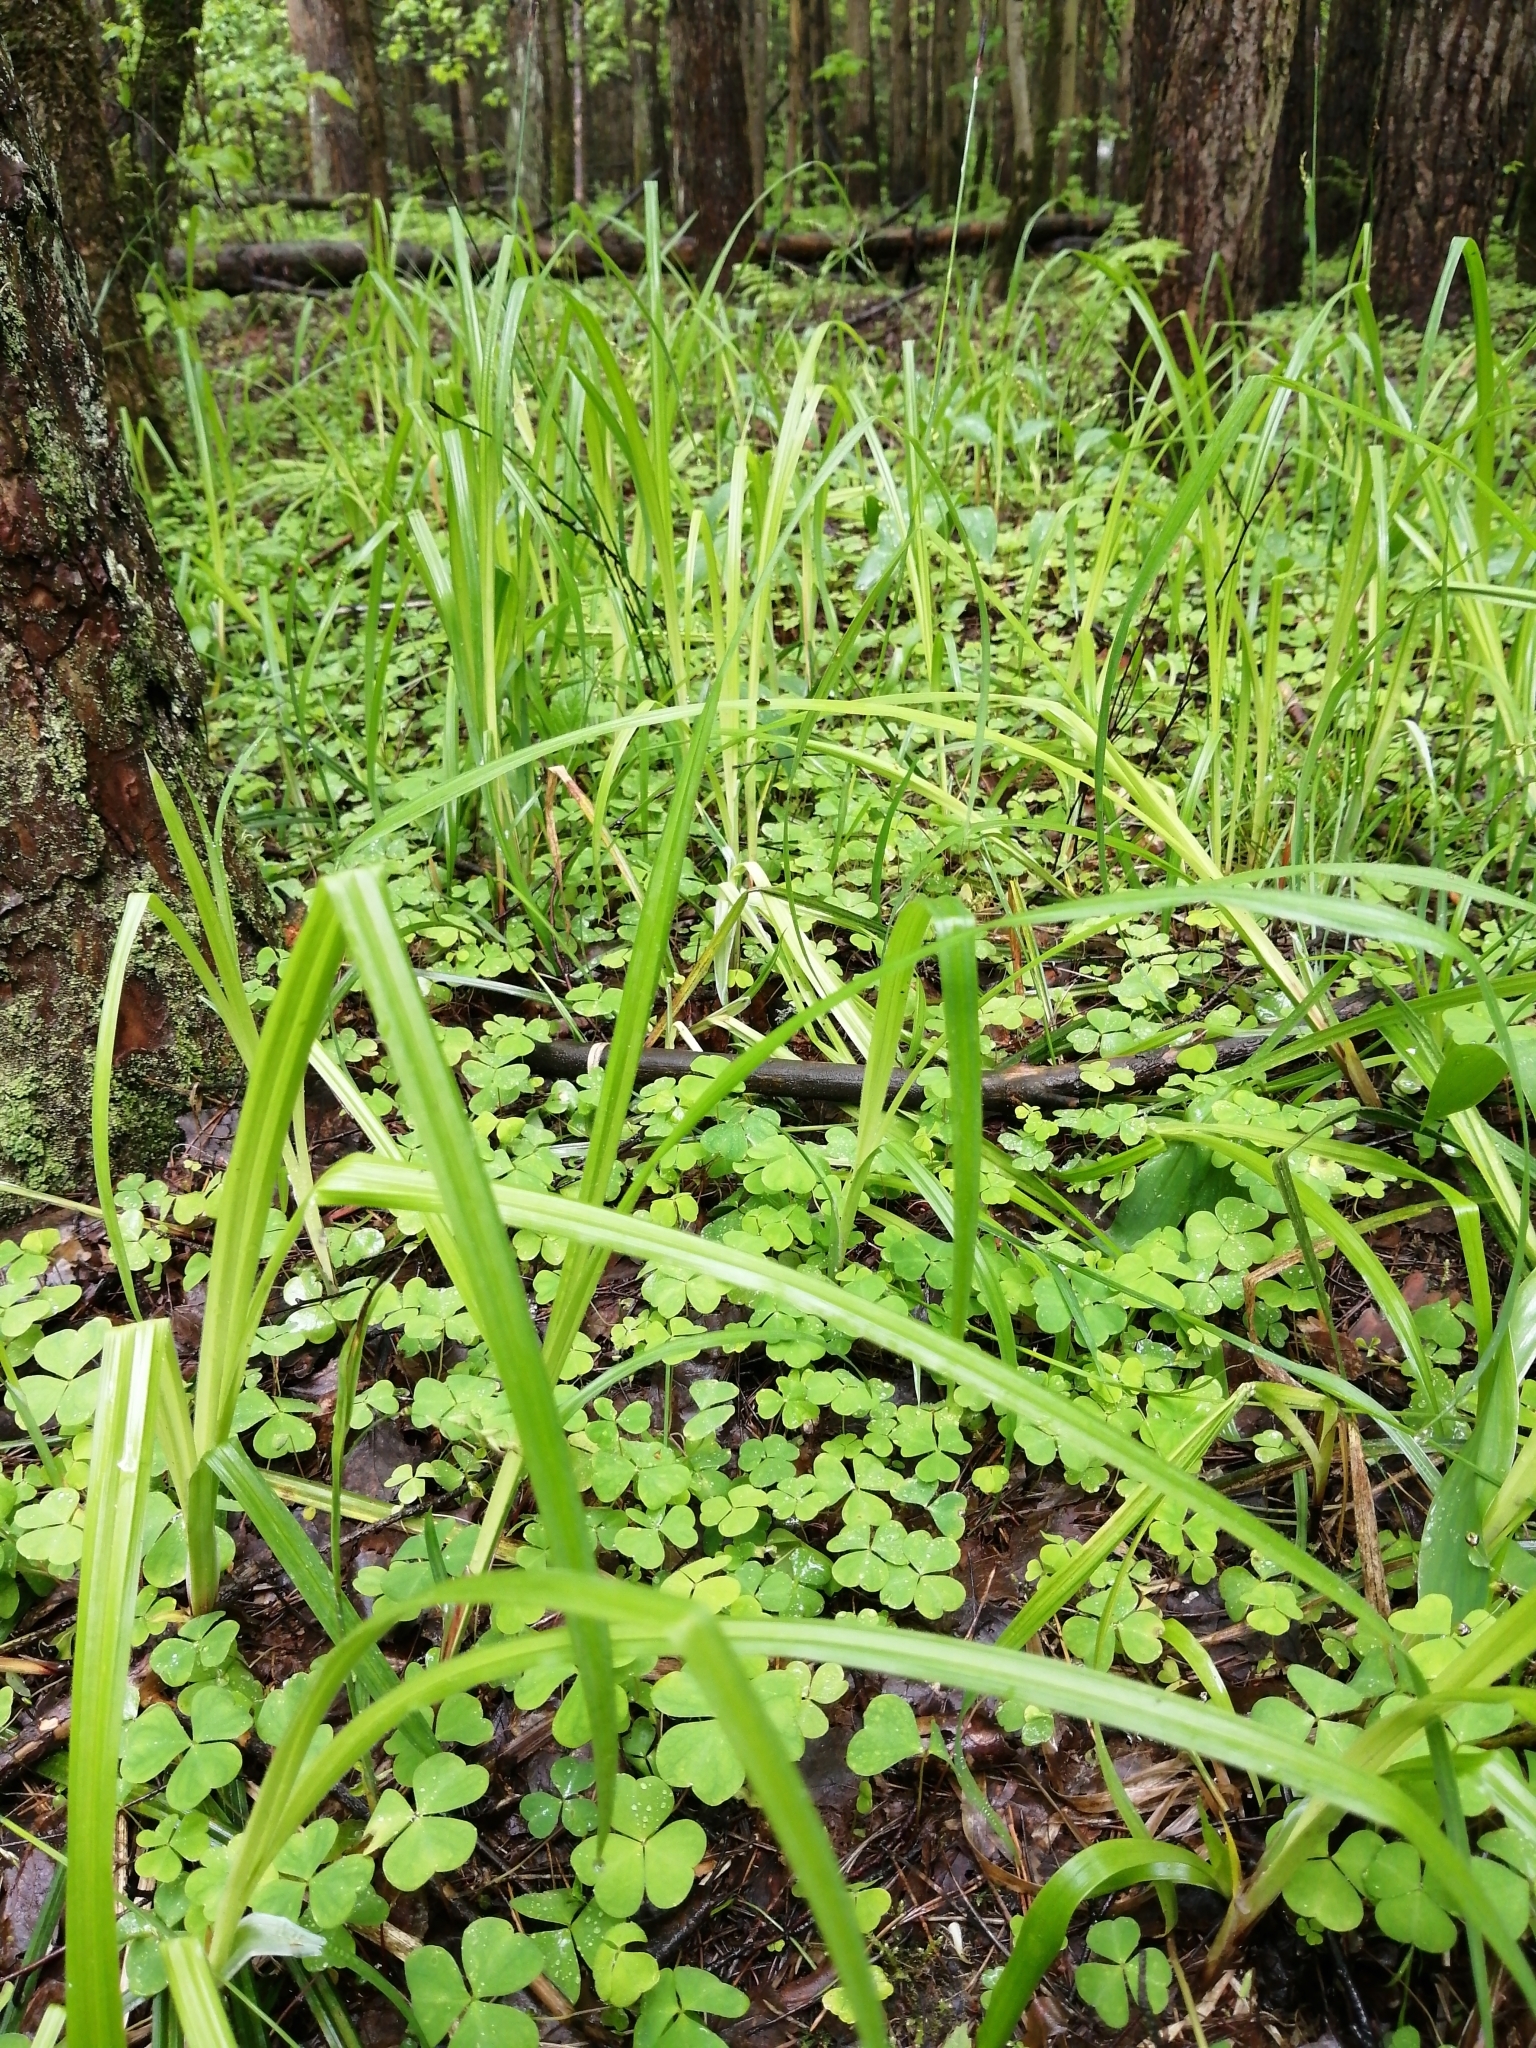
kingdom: Plantae
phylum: Tracheophyta
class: Liliopsida
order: Poales
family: Cyperaceae
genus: Carex
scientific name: Carex pilosa
